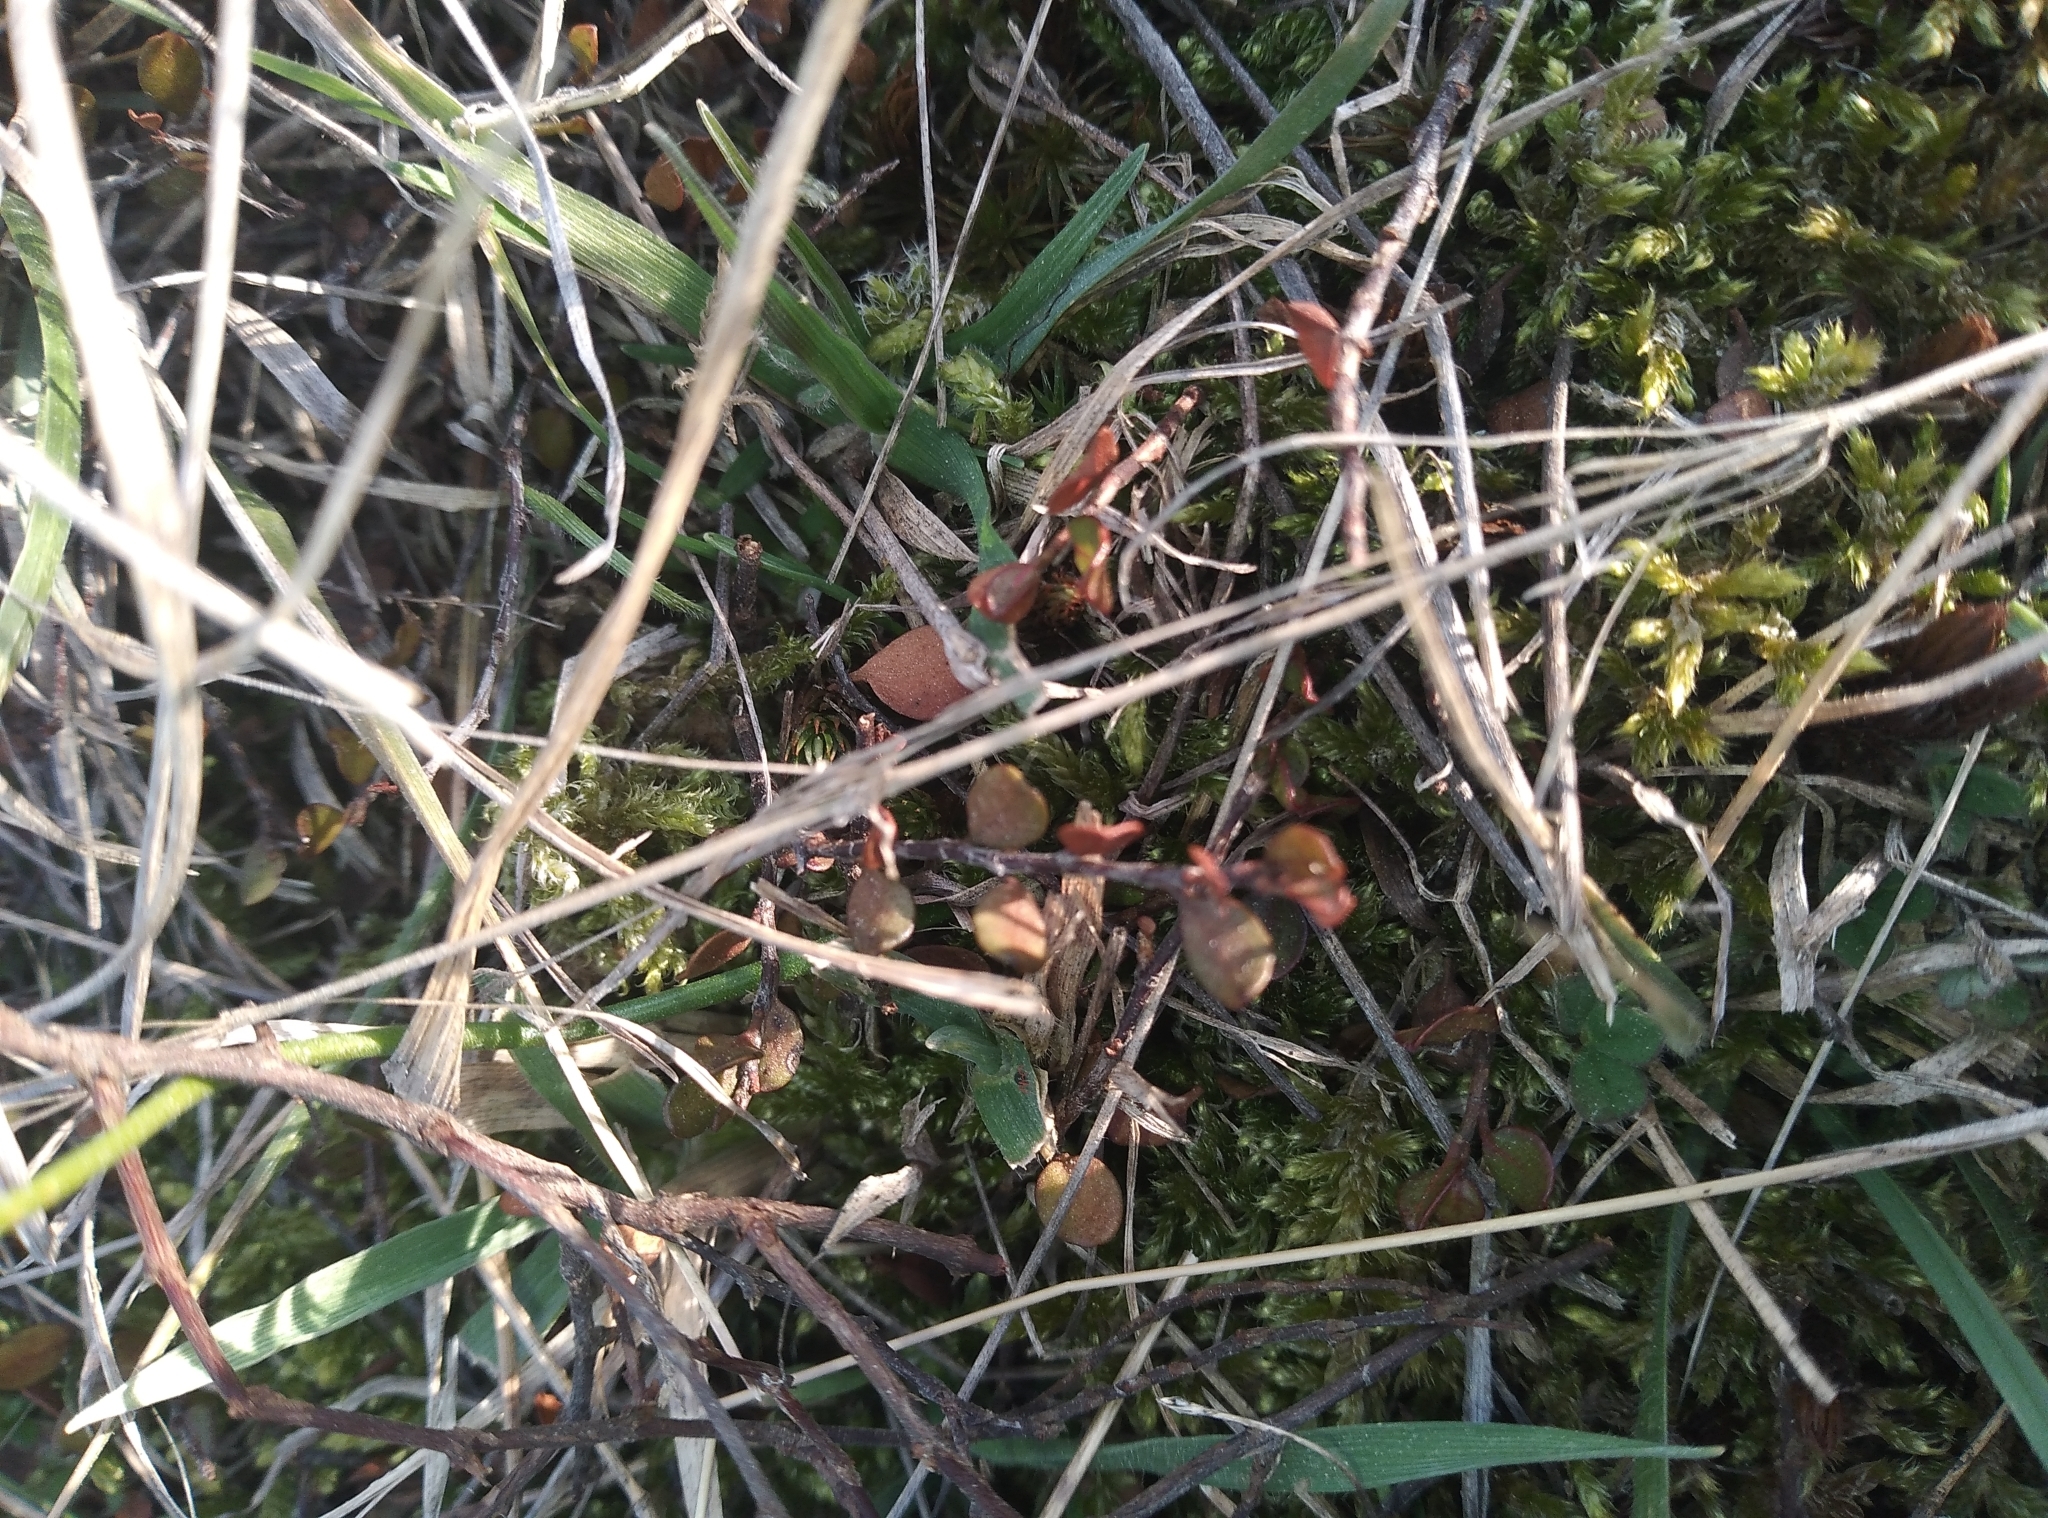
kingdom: Plantae
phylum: Tracheophyta
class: Magnoliopsida
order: Caryophyllales
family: Polygonaceae
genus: Muehlenbeckia
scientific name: Muehlenbeckia axillaris
